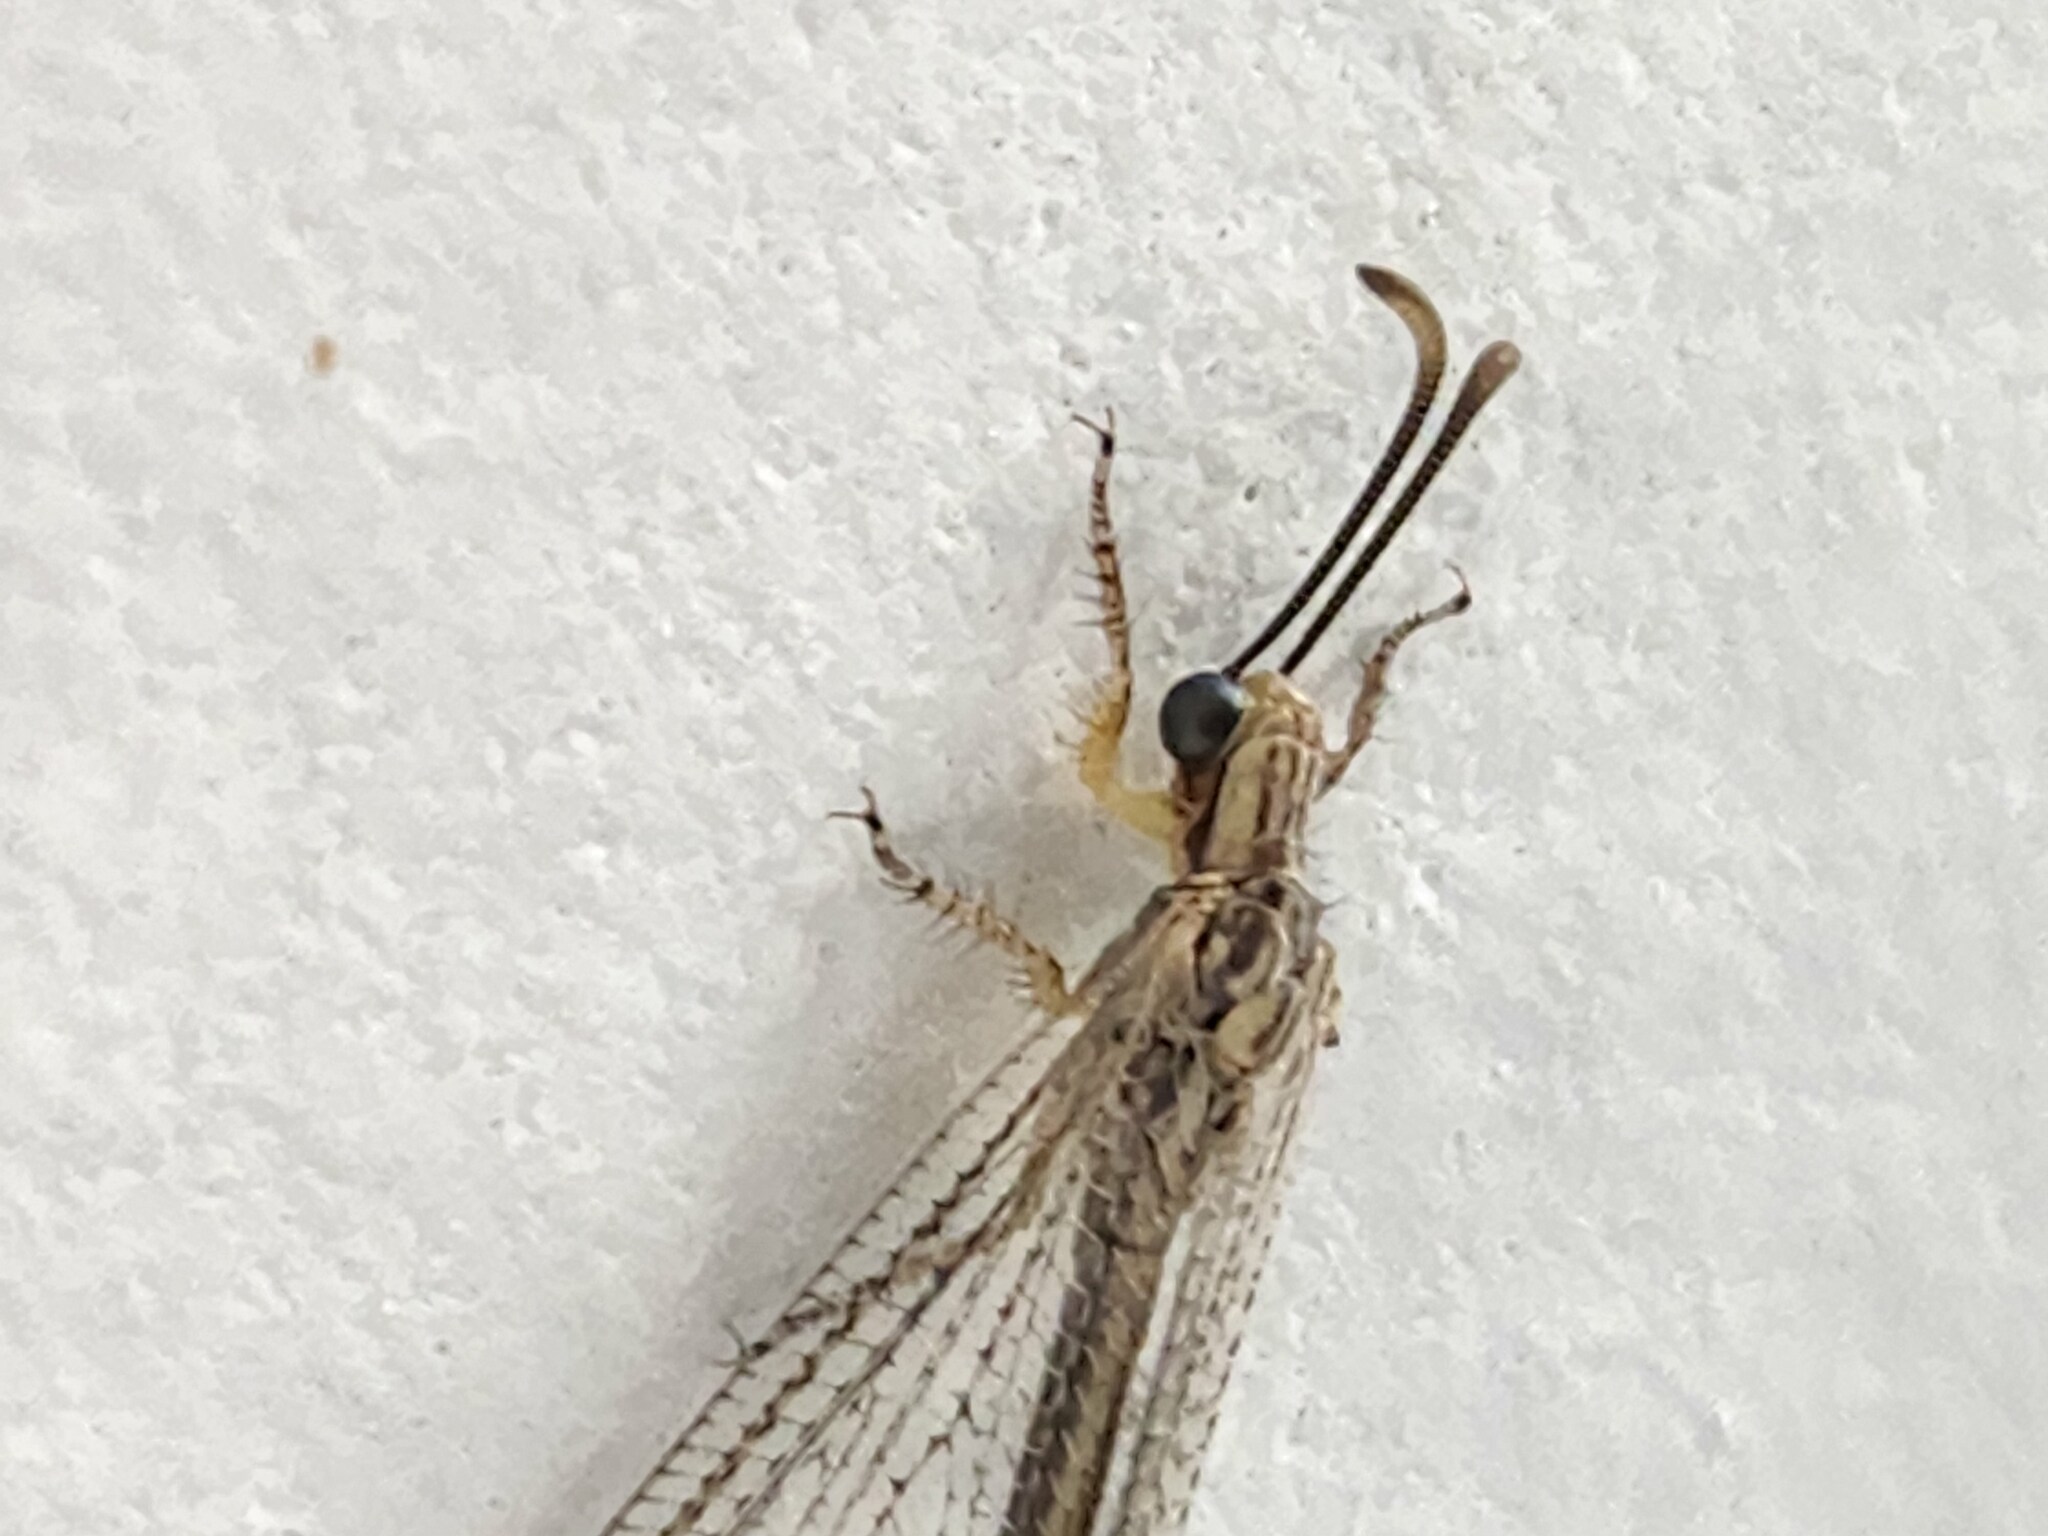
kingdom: Animalia
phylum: Arthropoda
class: Insecta
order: Neuroptera
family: Myrmeleontidae
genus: Brachynemurus
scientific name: Brachynemurus abdominalis
